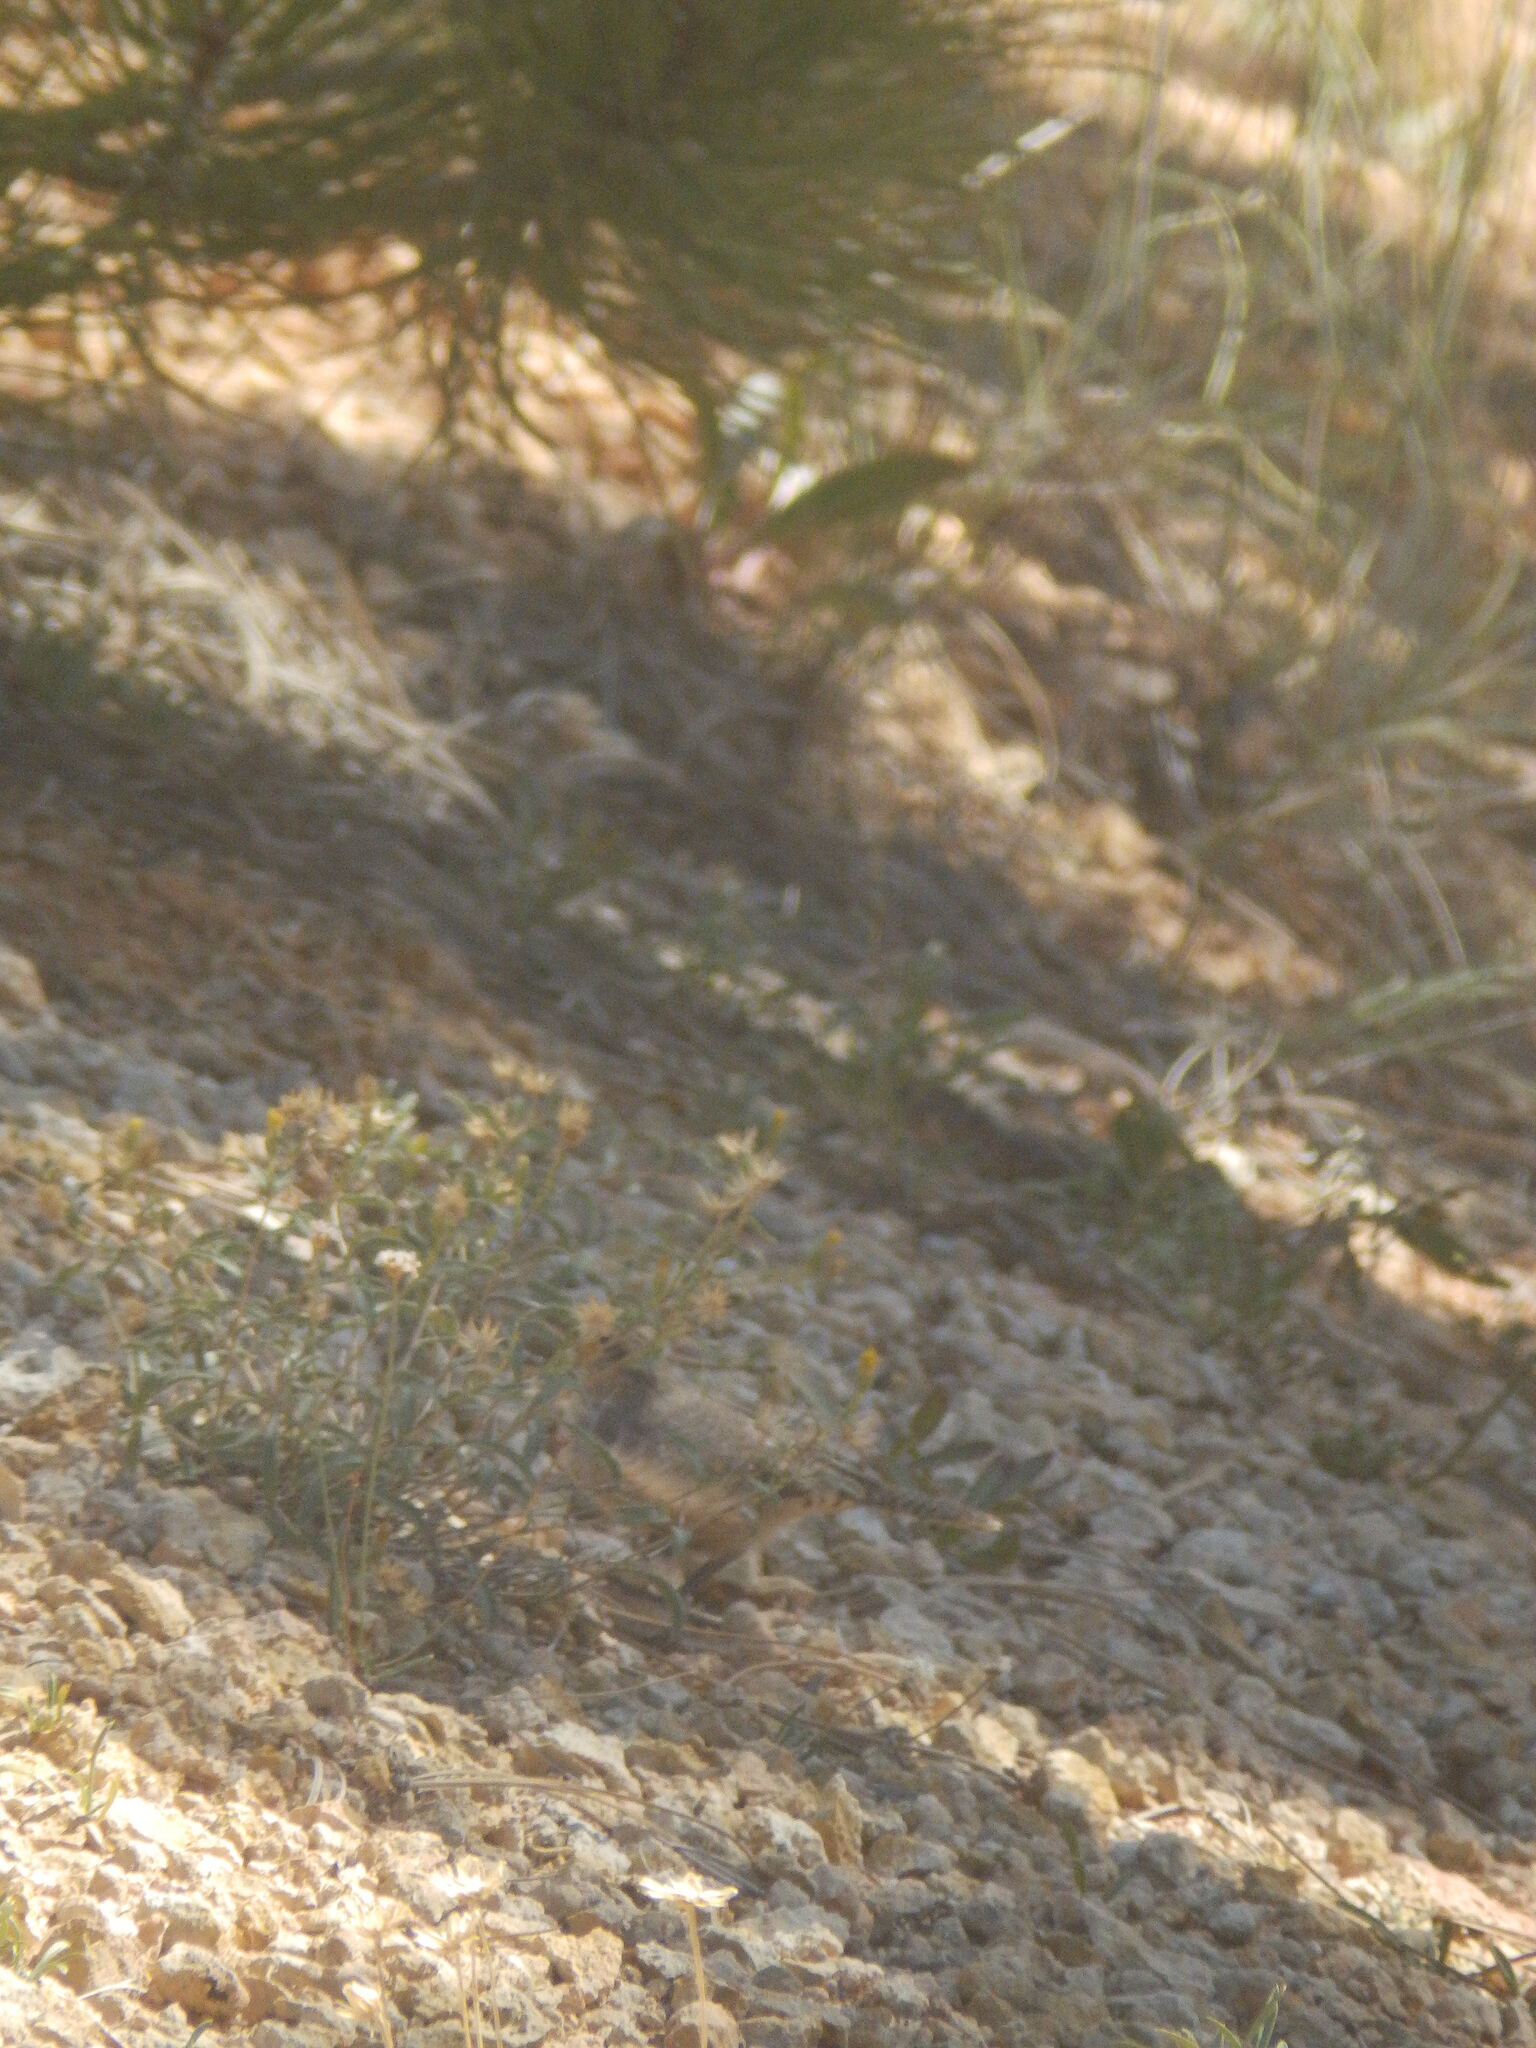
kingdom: Animalia
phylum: Chordata
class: Aves
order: Passeriformes
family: Troglodytidae
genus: Salpinctes
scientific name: Salpinctes obsoletus
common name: Rock wren
